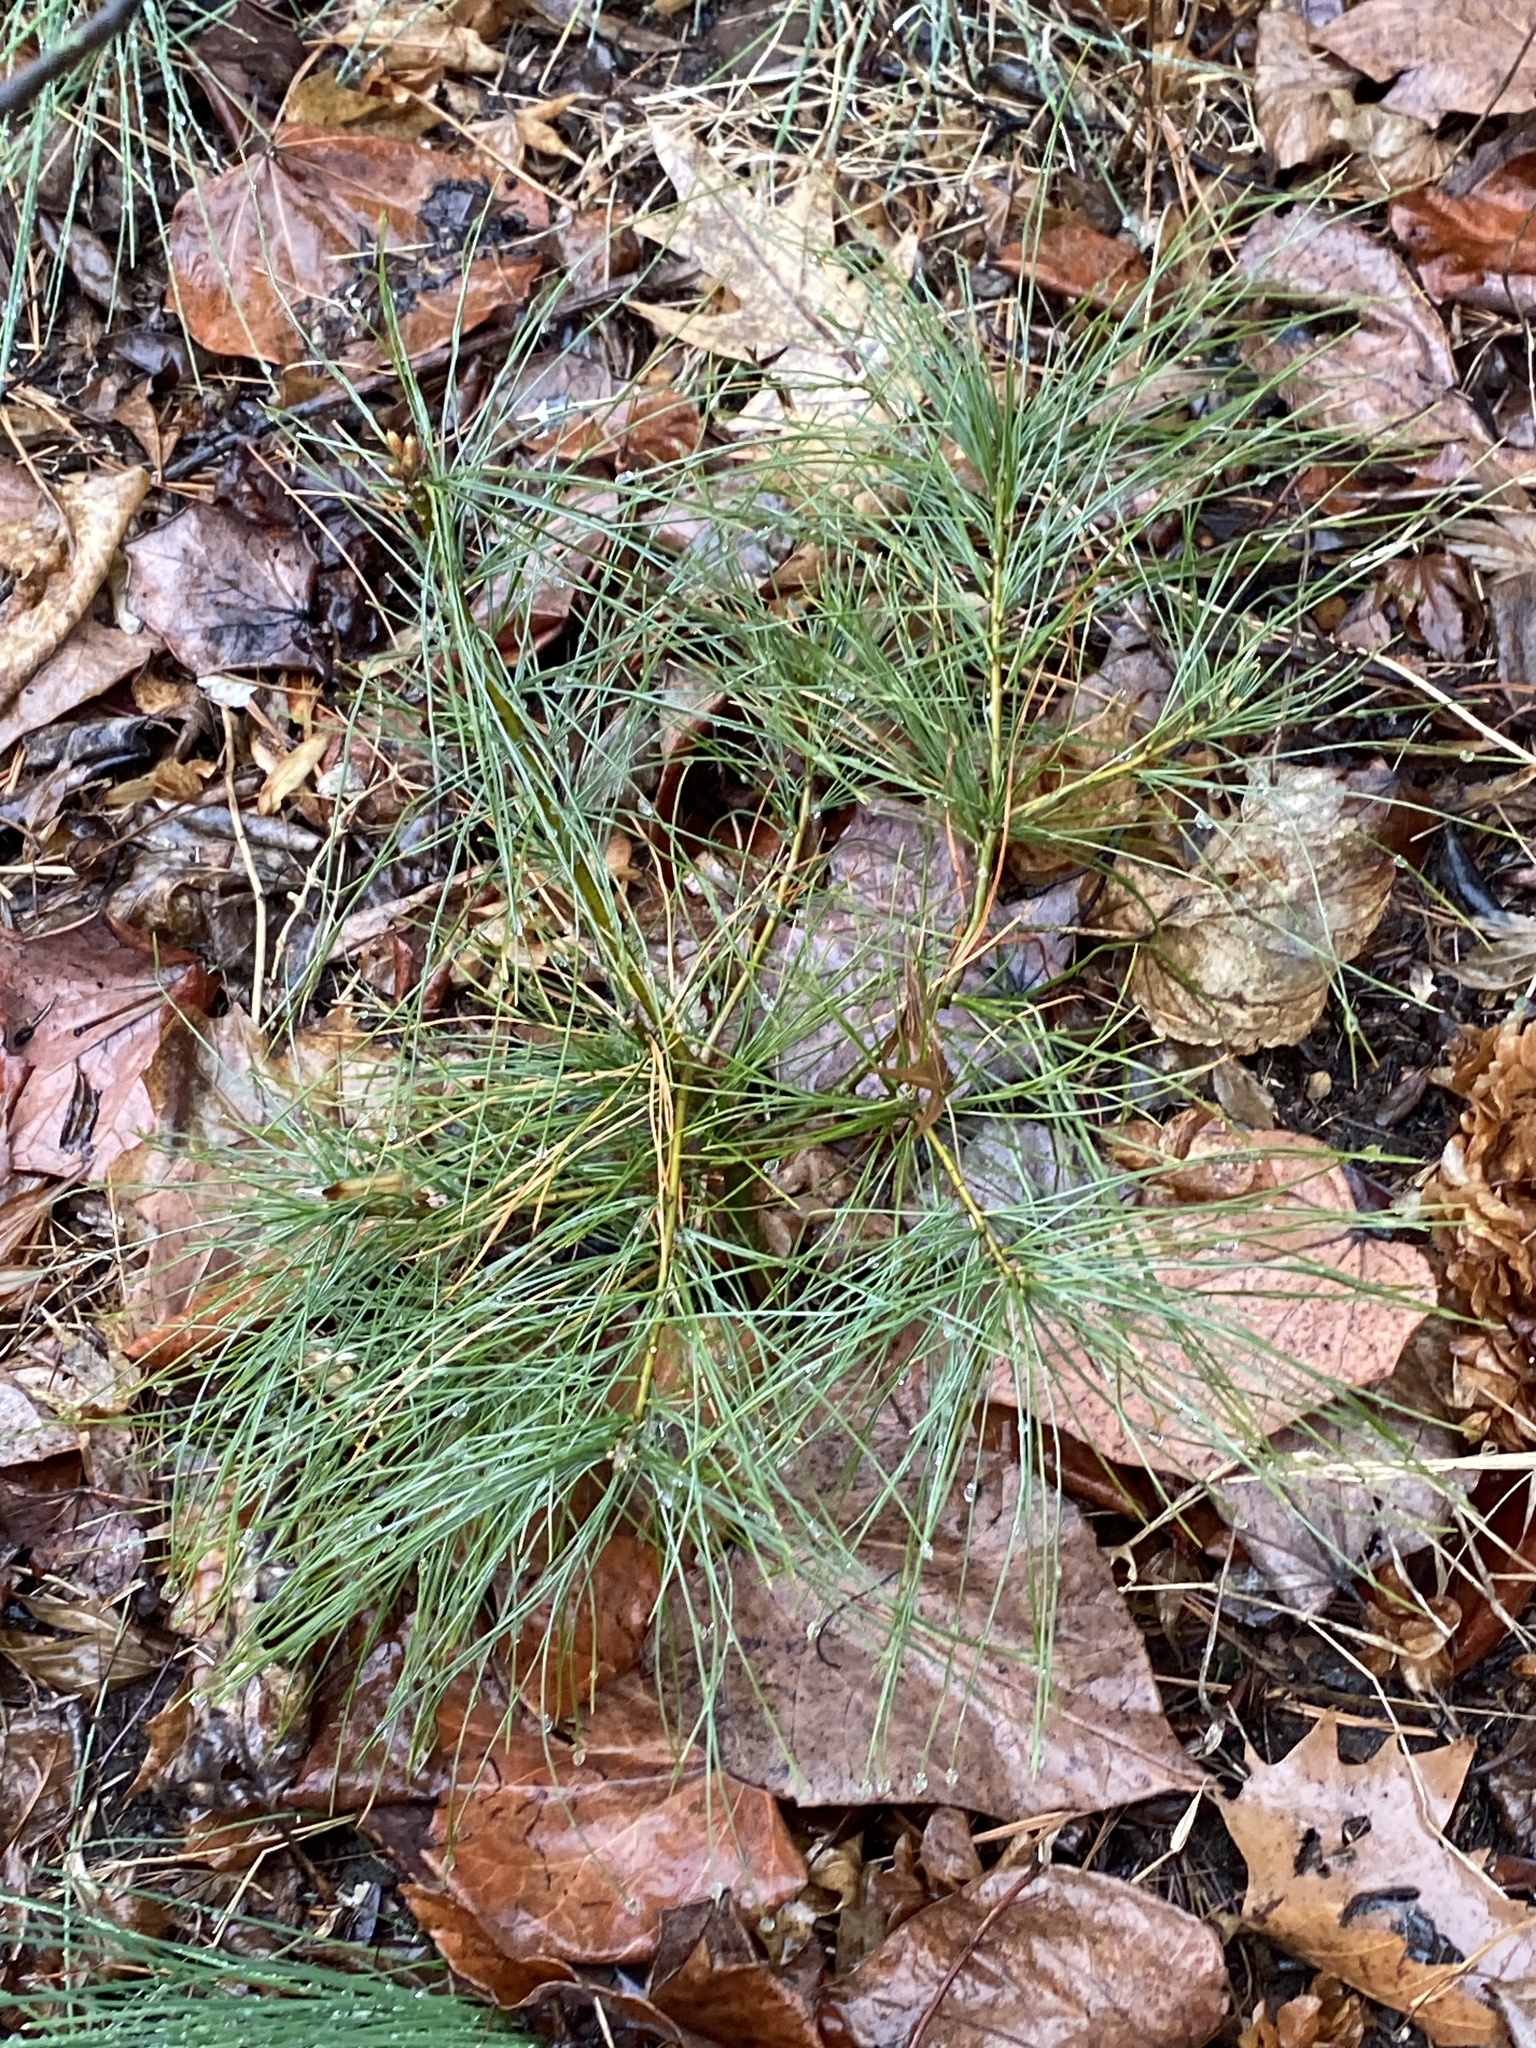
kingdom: Plantae
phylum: Tracheophyta
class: Pinopsida
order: Pinales
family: Pinaceae
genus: Pinus
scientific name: Pinus strobus
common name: Weymouth pine
